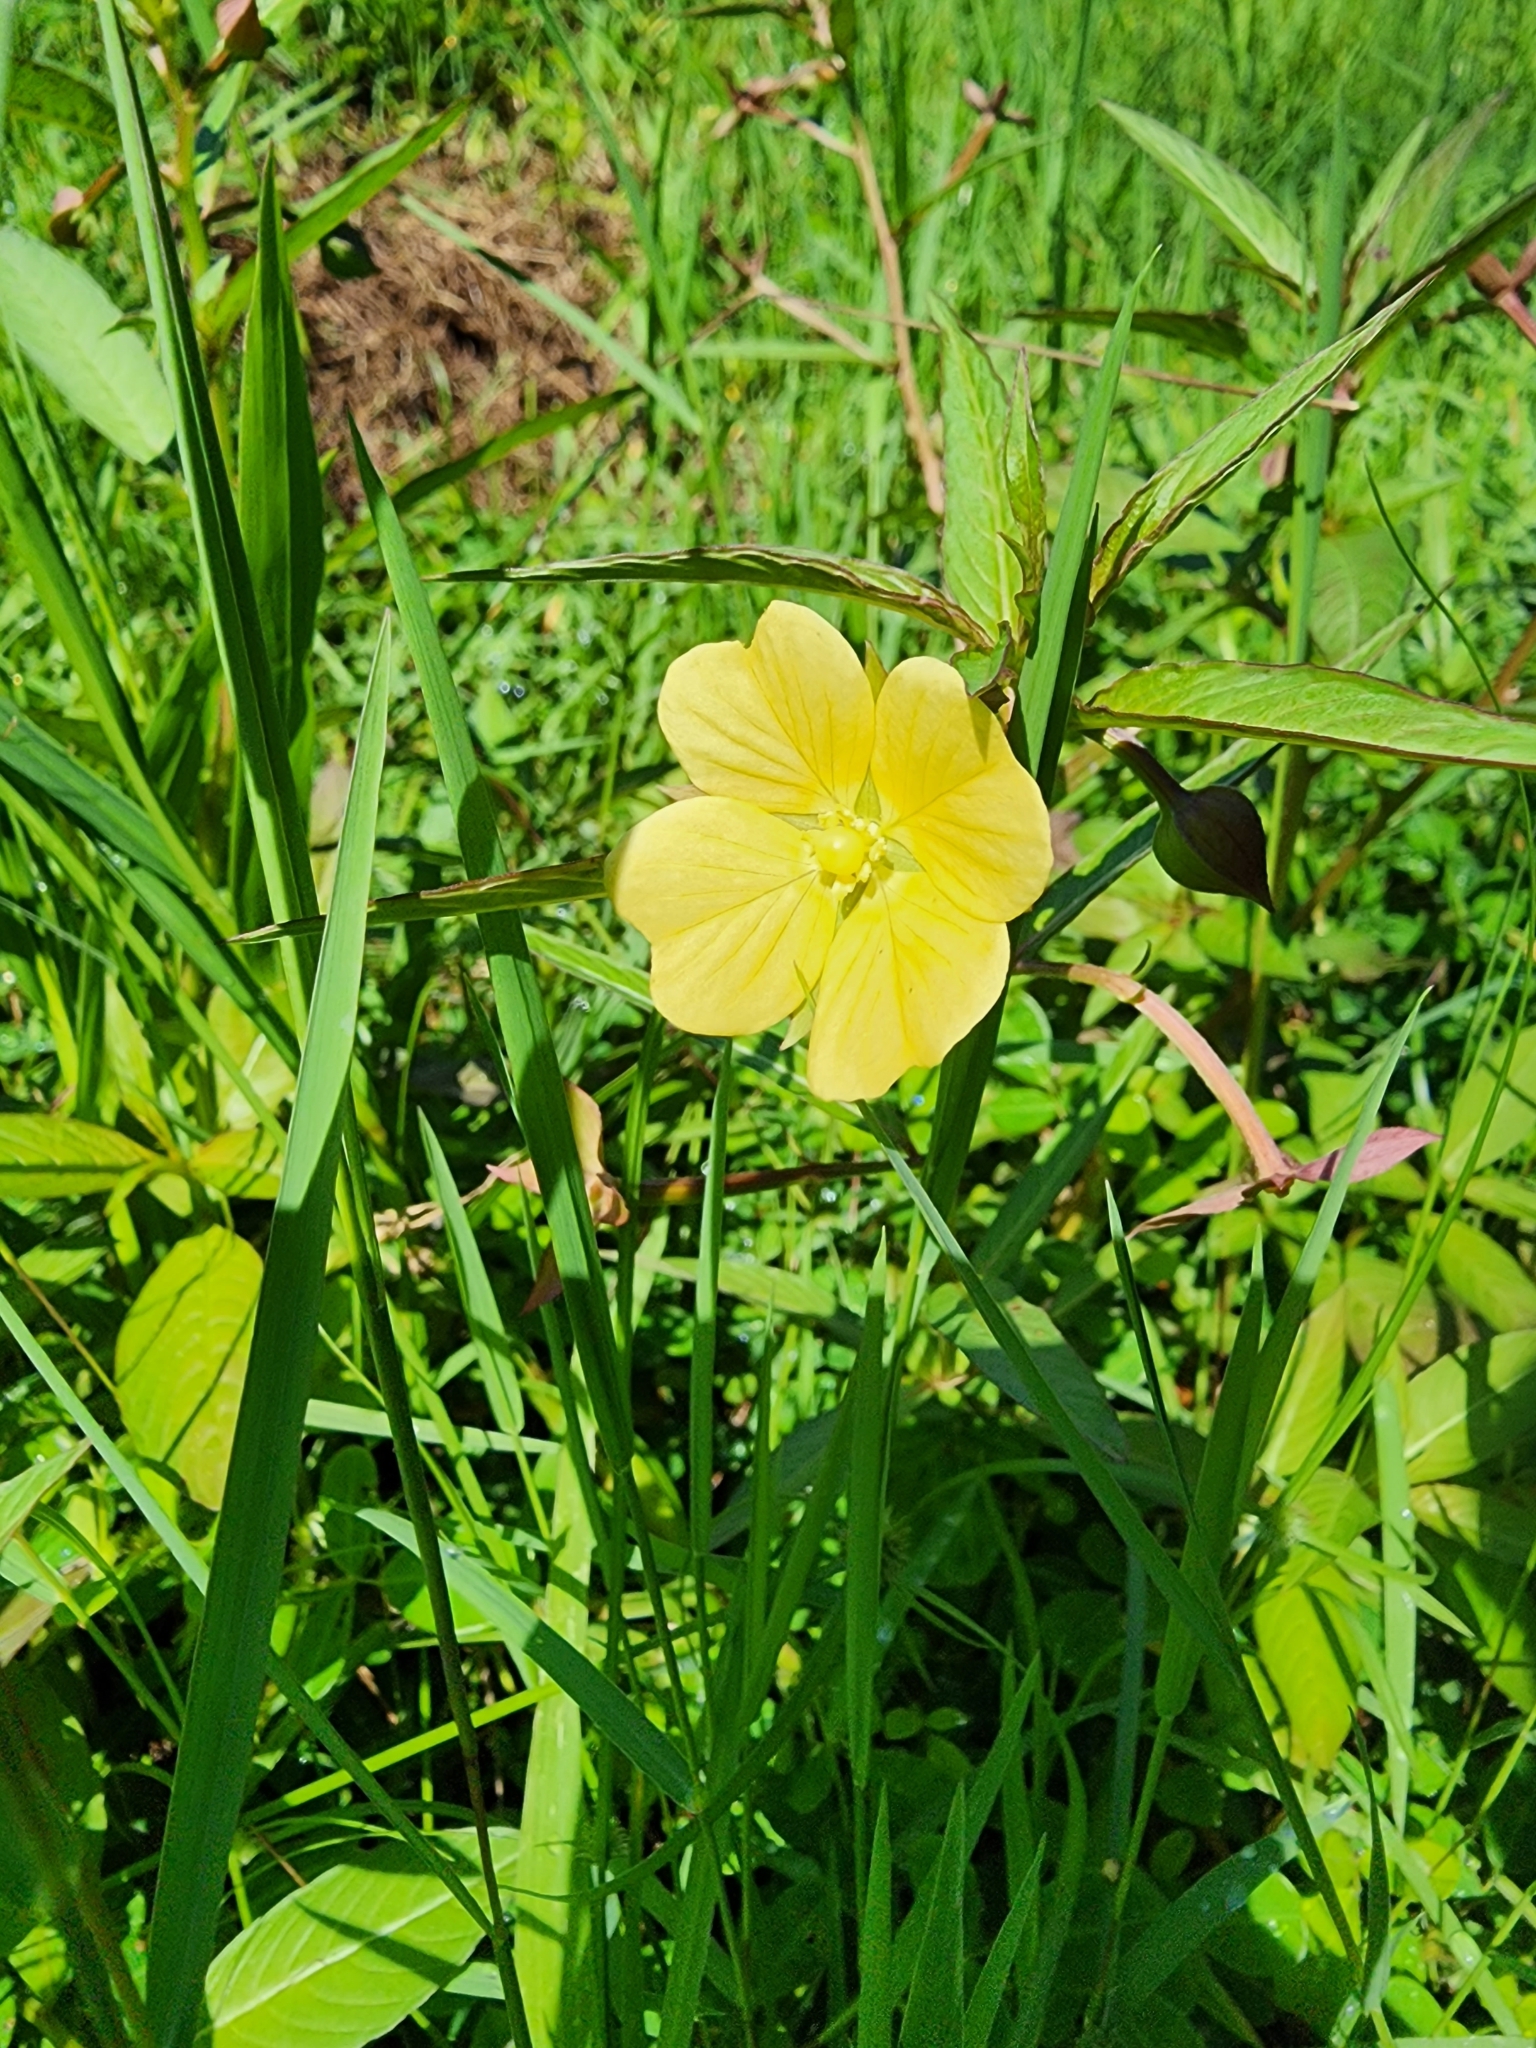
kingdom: Plantae
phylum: Tracheophyta
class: Magnoliopsida
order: Myrtales
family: Onagraceae
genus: Ludwigia
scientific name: Ludwigia octovalvis
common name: Water-primrose
